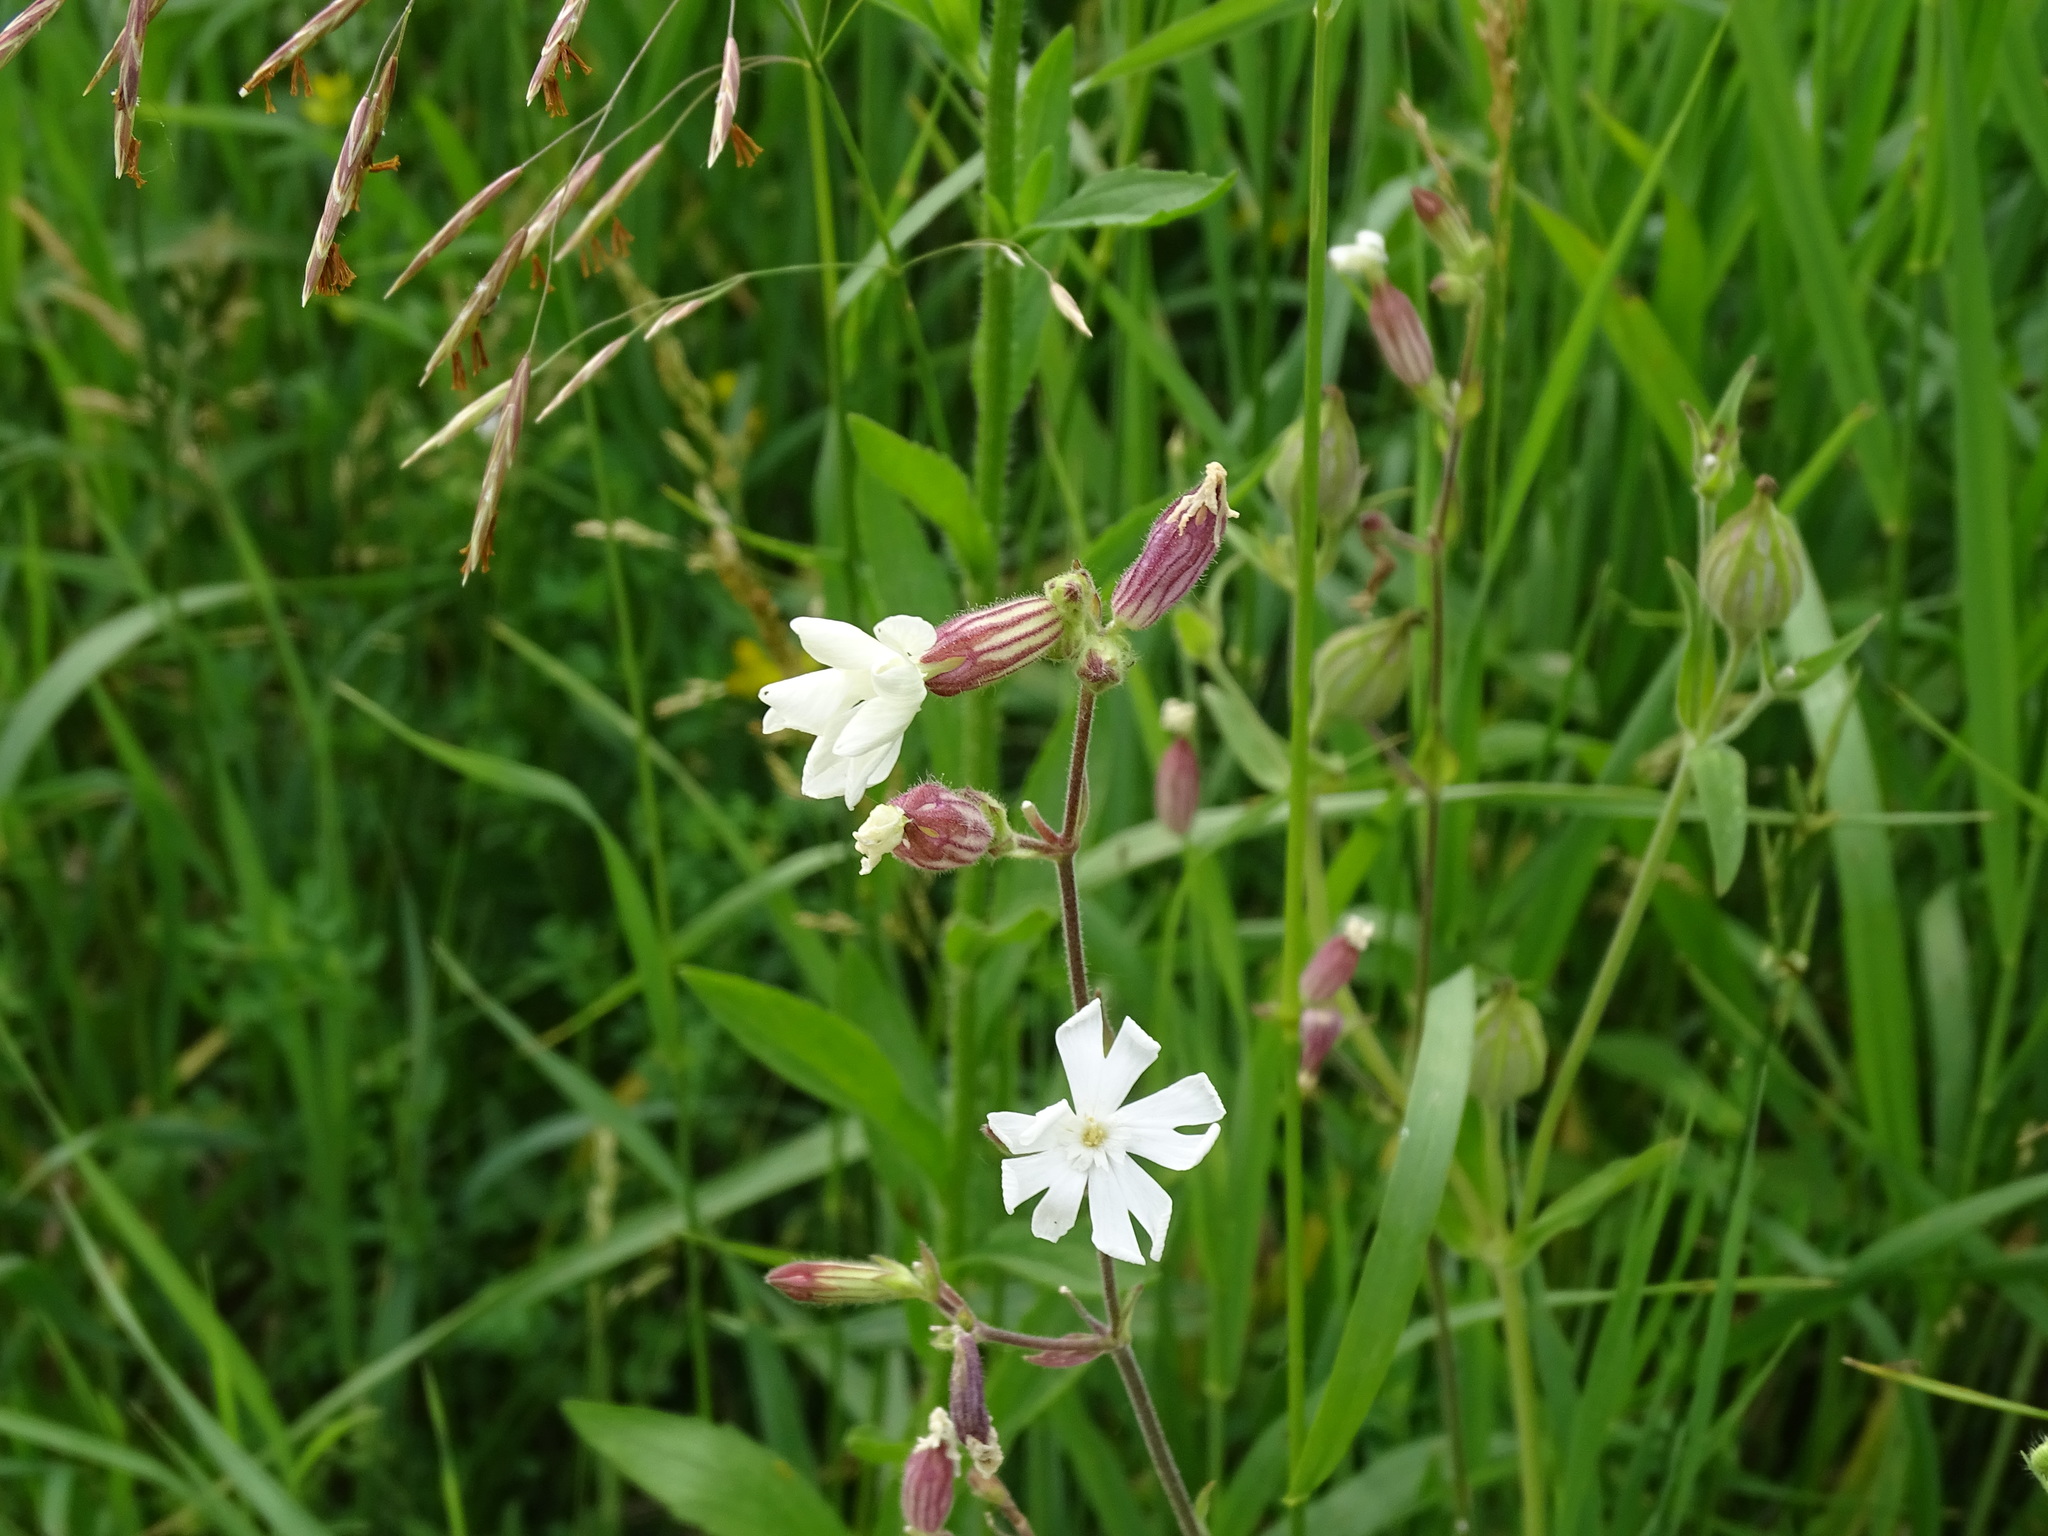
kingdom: Plantae
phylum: Tracheophyta
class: Magnoliopsida
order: Caryophyllales
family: Caryophyllaceae
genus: Silene
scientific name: Silene latifolia
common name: White campion
